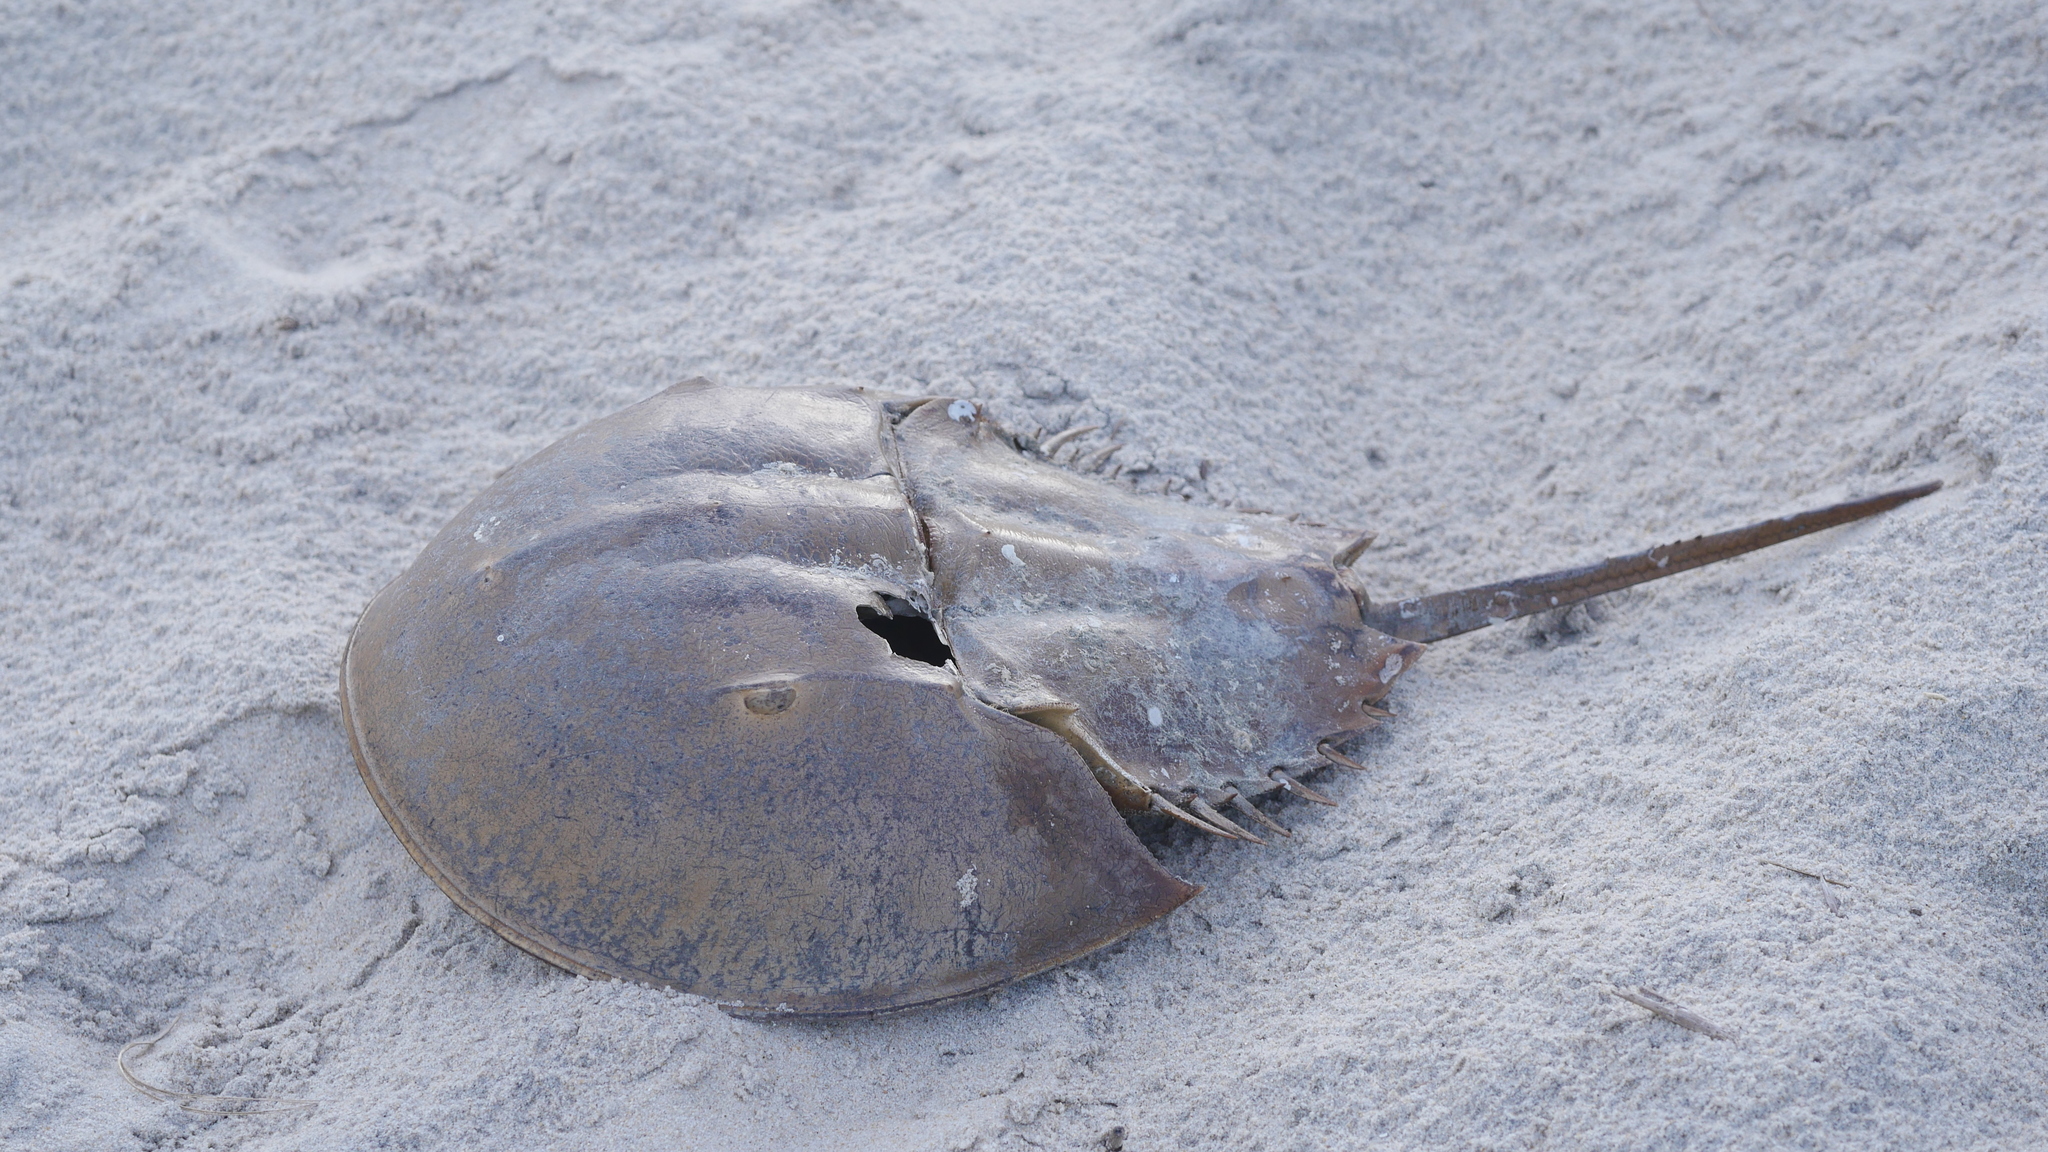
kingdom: Animalia
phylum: Arthropoda
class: Merostomata
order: Xiphosurida
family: Limulidae
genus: Limulus
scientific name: Limulus polyphemus
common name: Horseshoe crab
